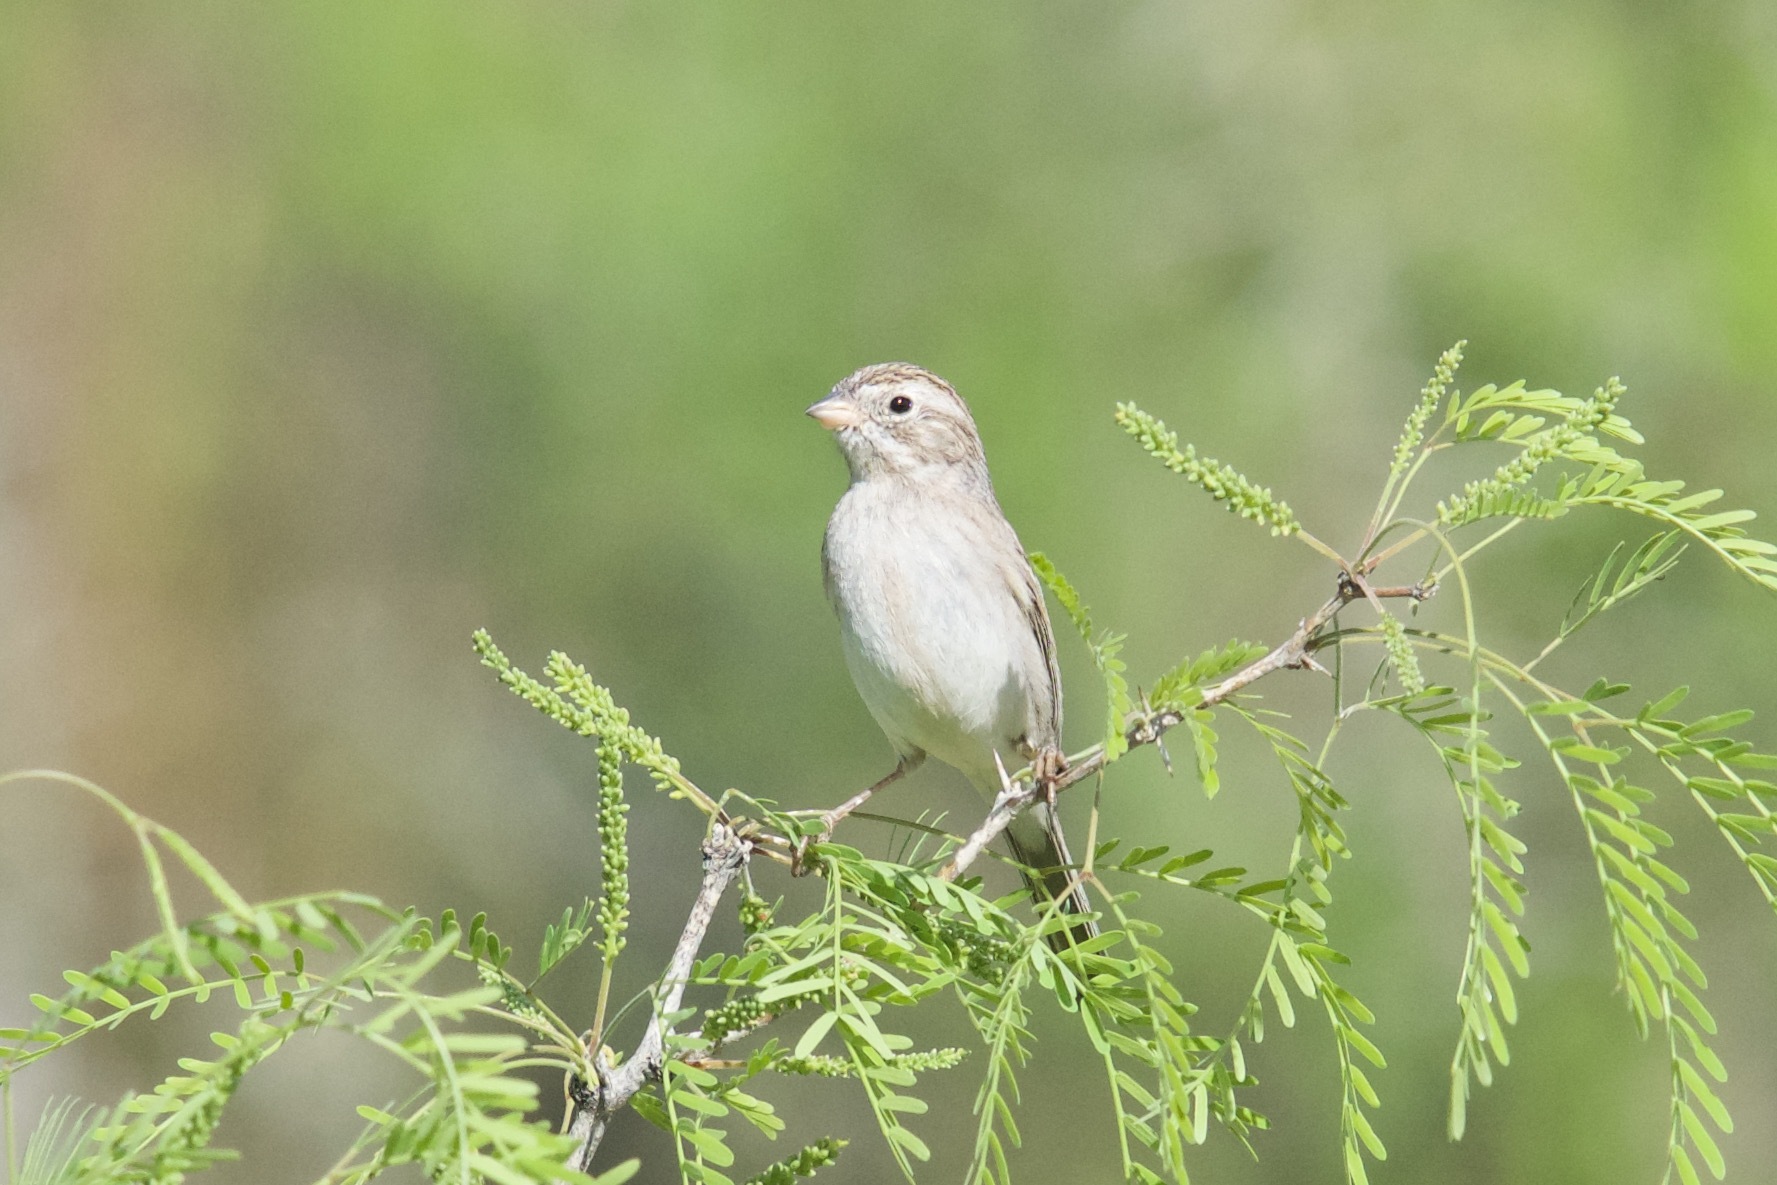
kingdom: Animalia
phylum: Chordata
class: Aves
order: Passeriformes
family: Passerellidae
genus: Spizella
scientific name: Spizella breweri
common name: Brewer's sparrow
